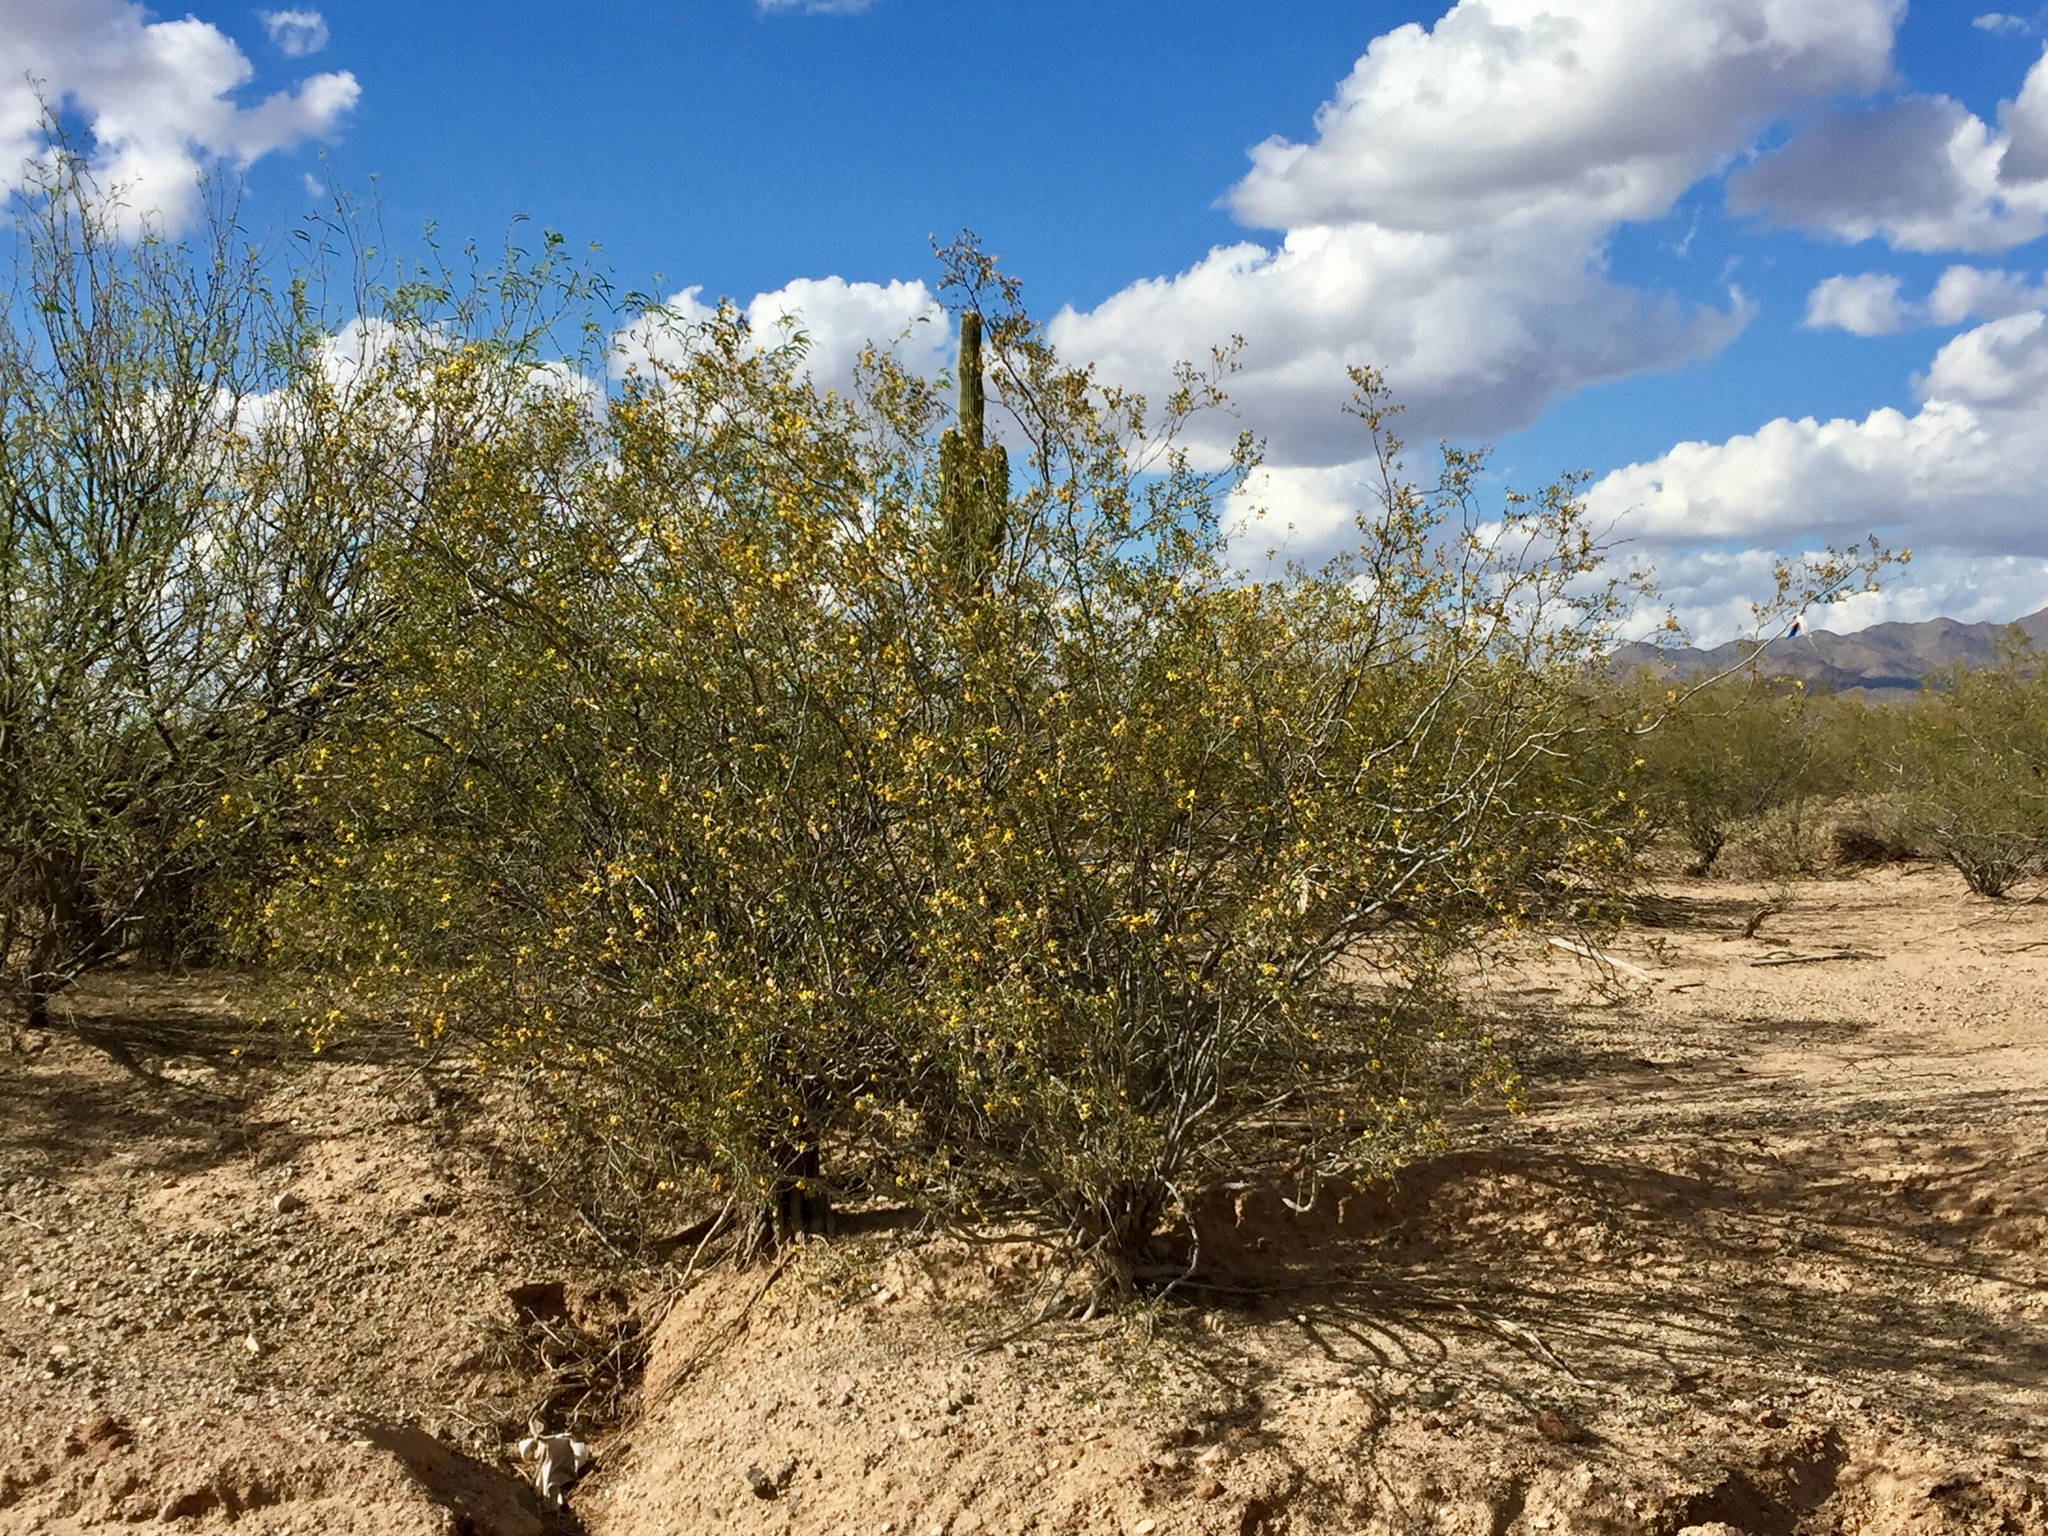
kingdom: Plantae
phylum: Tracheophyta
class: Magnoliopsida
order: Zygophyllales
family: Zygophyllaceae
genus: Larrea
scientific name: Larrea tridentata
